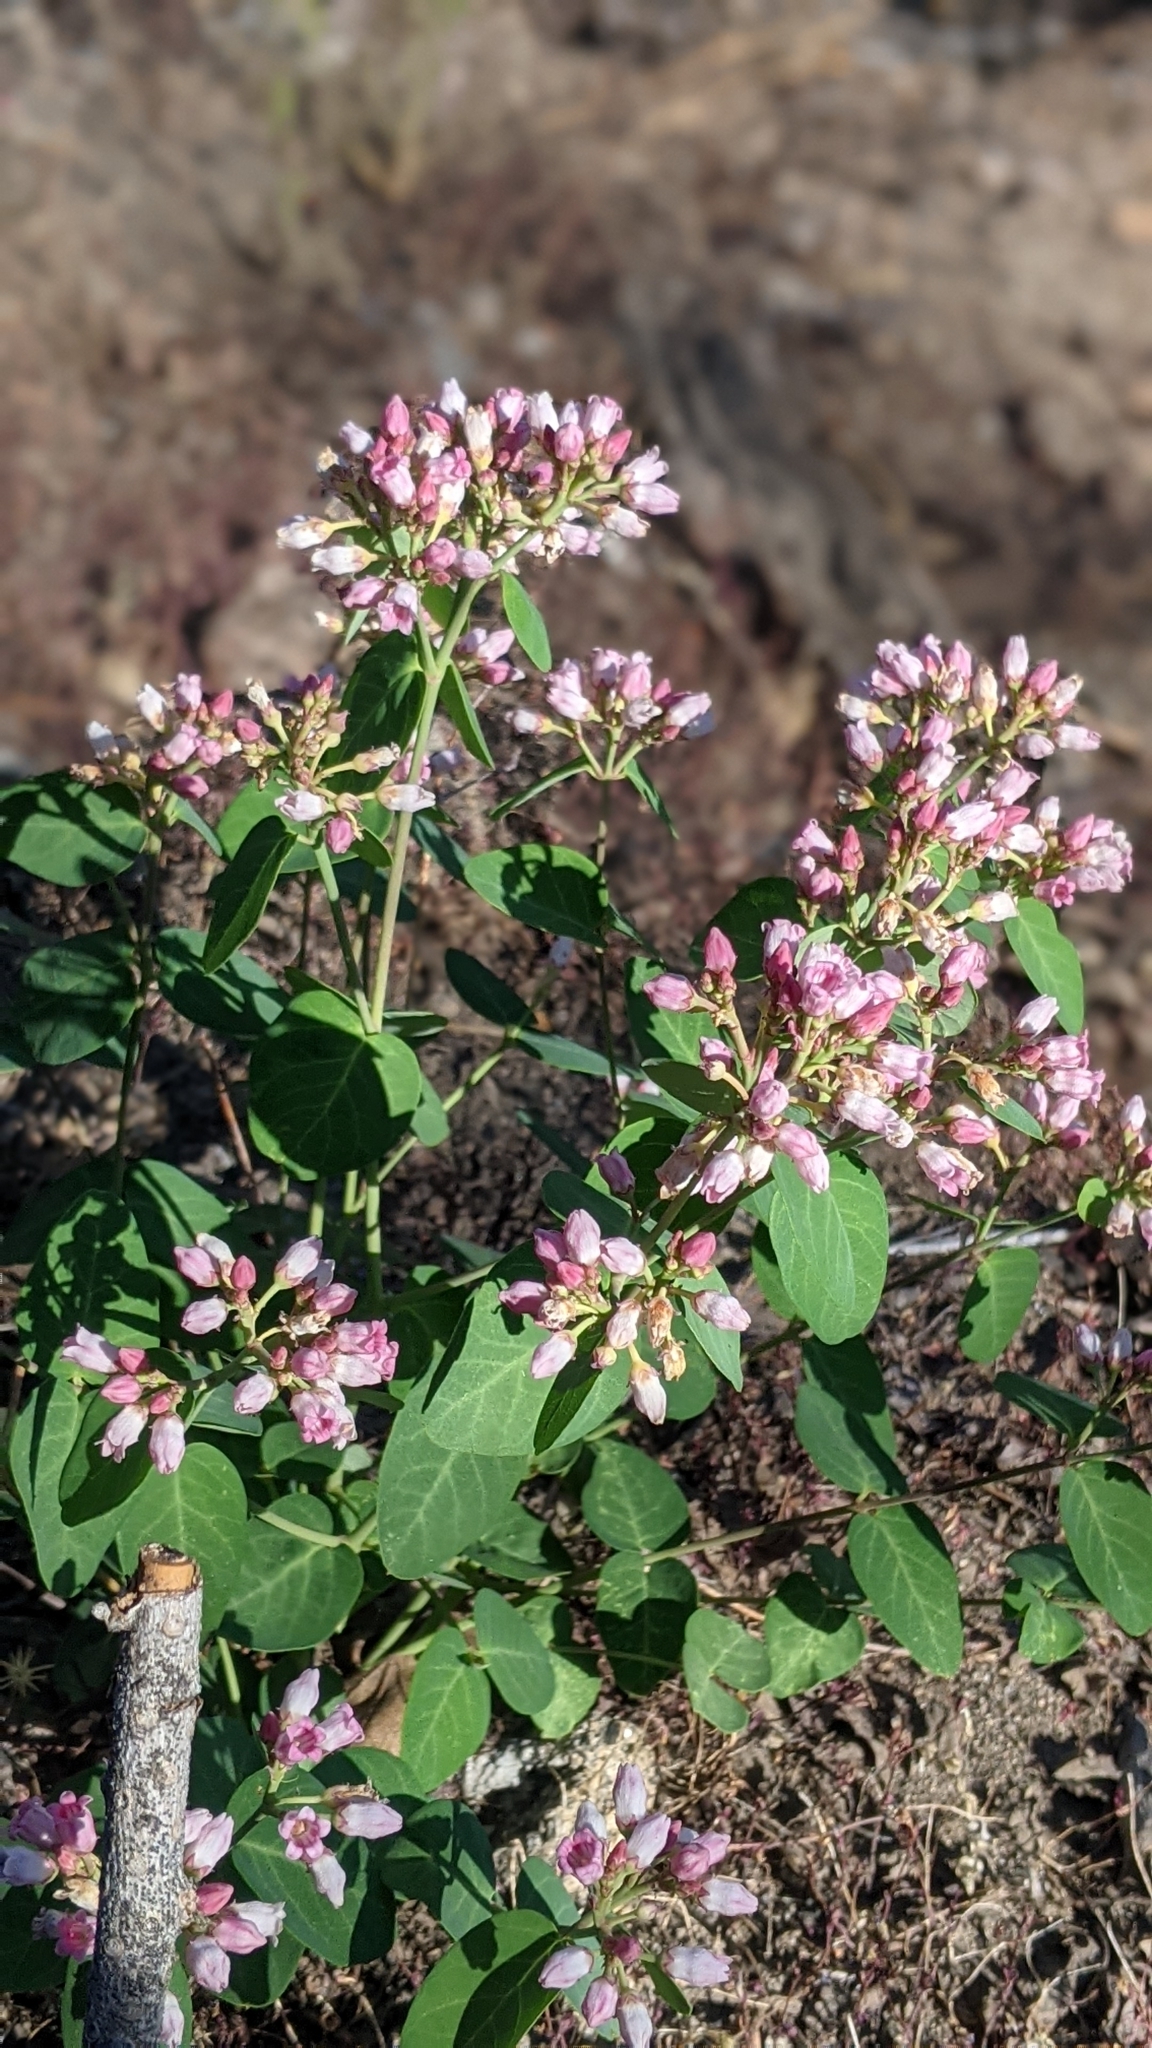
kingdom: Plantae
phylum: Tracheophyta
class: Magnoliopsida
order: Gentianales
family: Apocynaceae
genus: Apocynum
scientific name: Apocynum androsaemifolium
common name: Spreading dogbane
